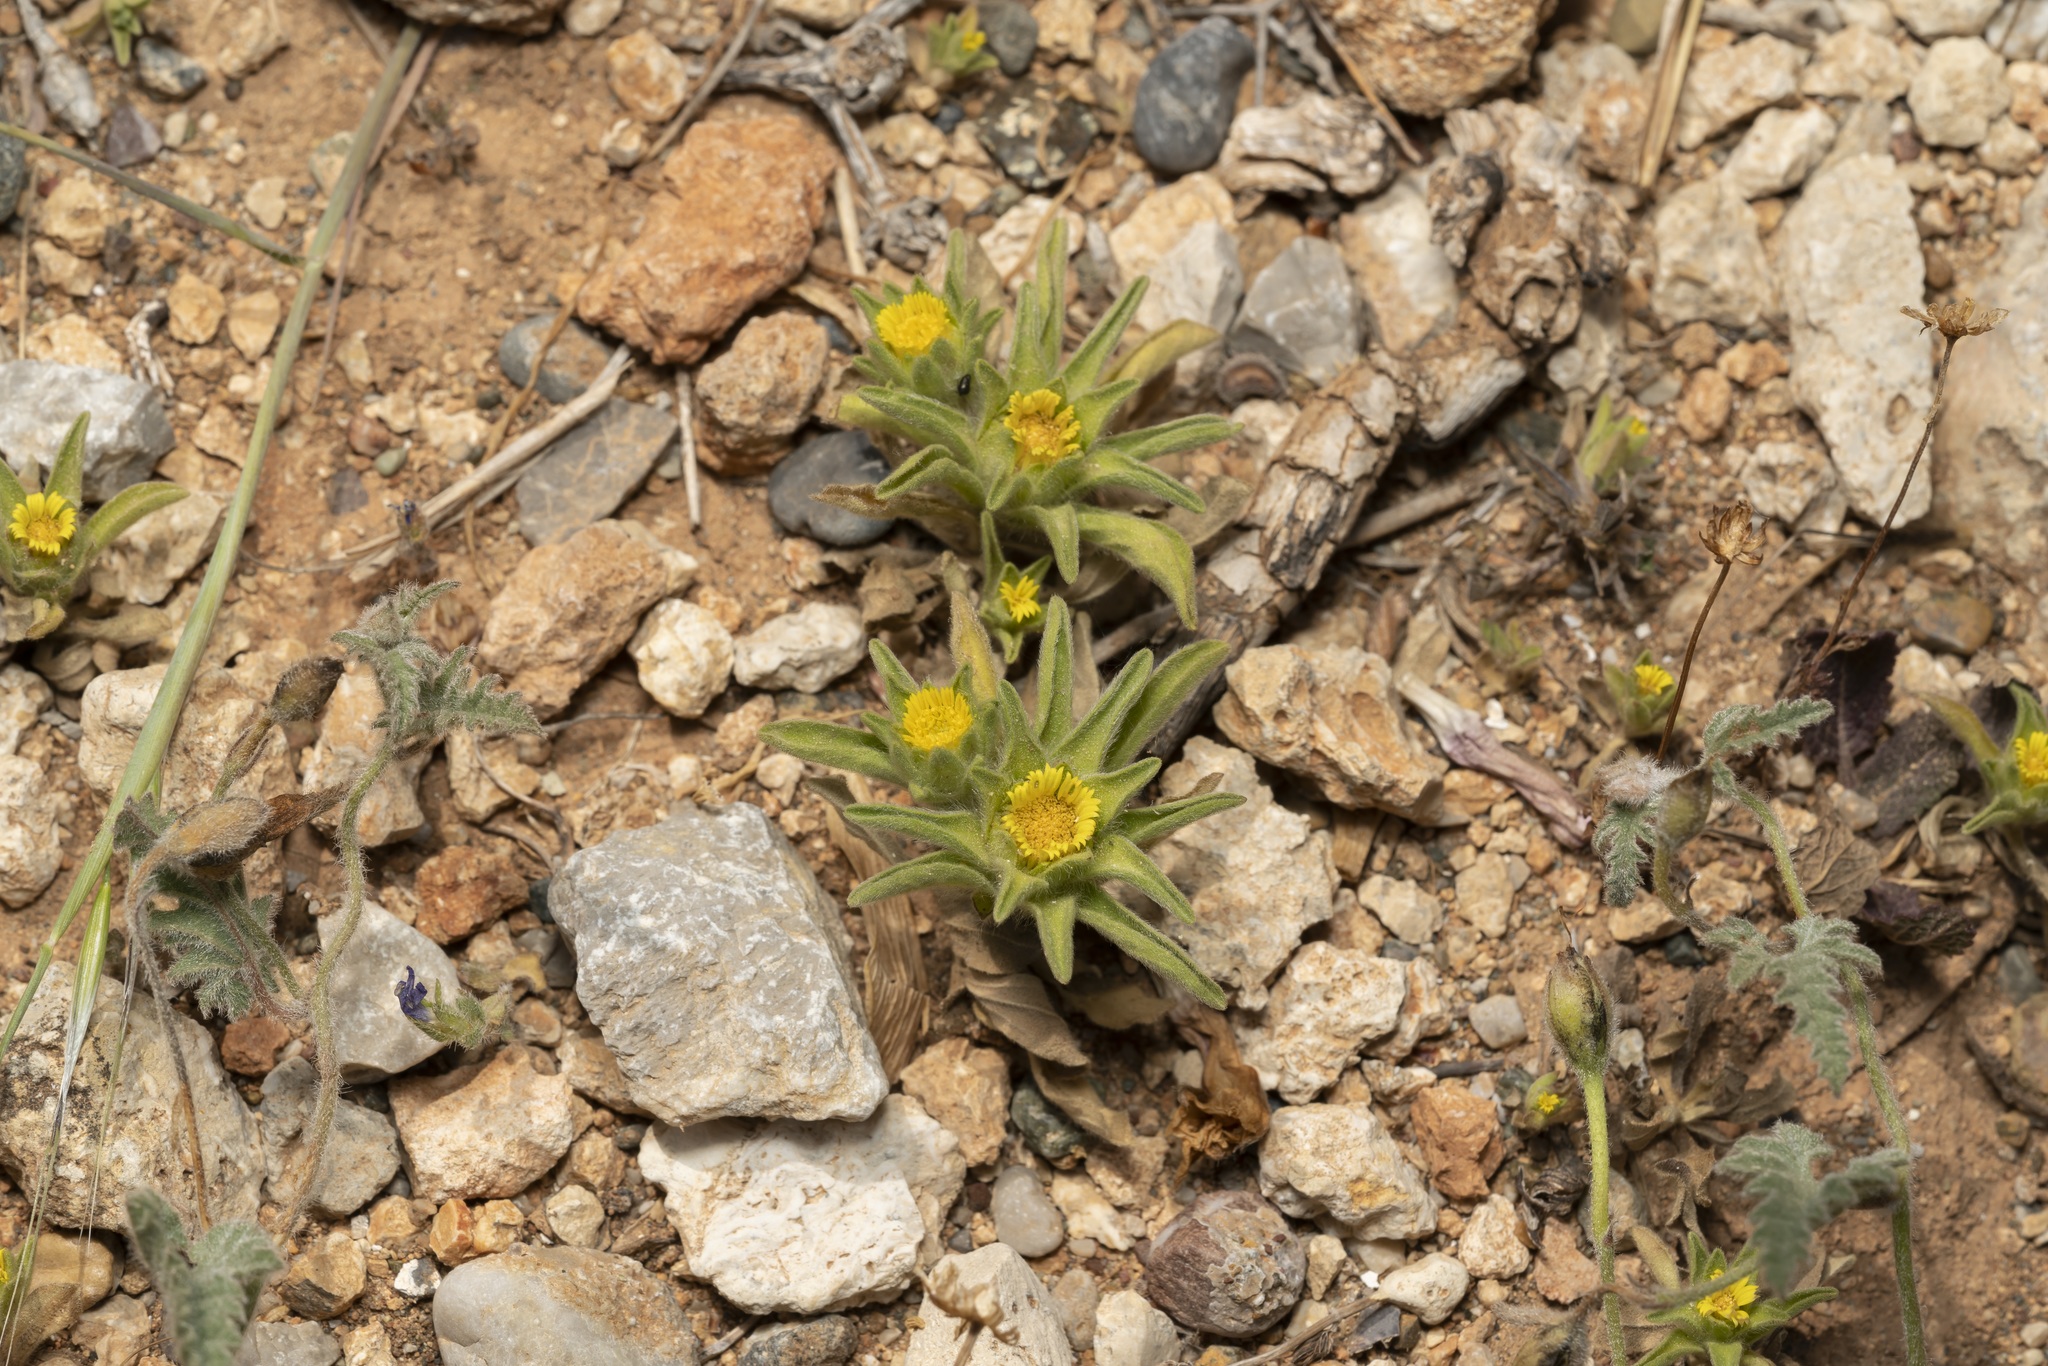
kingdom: Plantae
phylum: Tracheophyta
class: Magnoliopsida
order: Asterales
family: Asteraceae
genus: Asteriscus
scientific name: Asteriscus aquaticus
